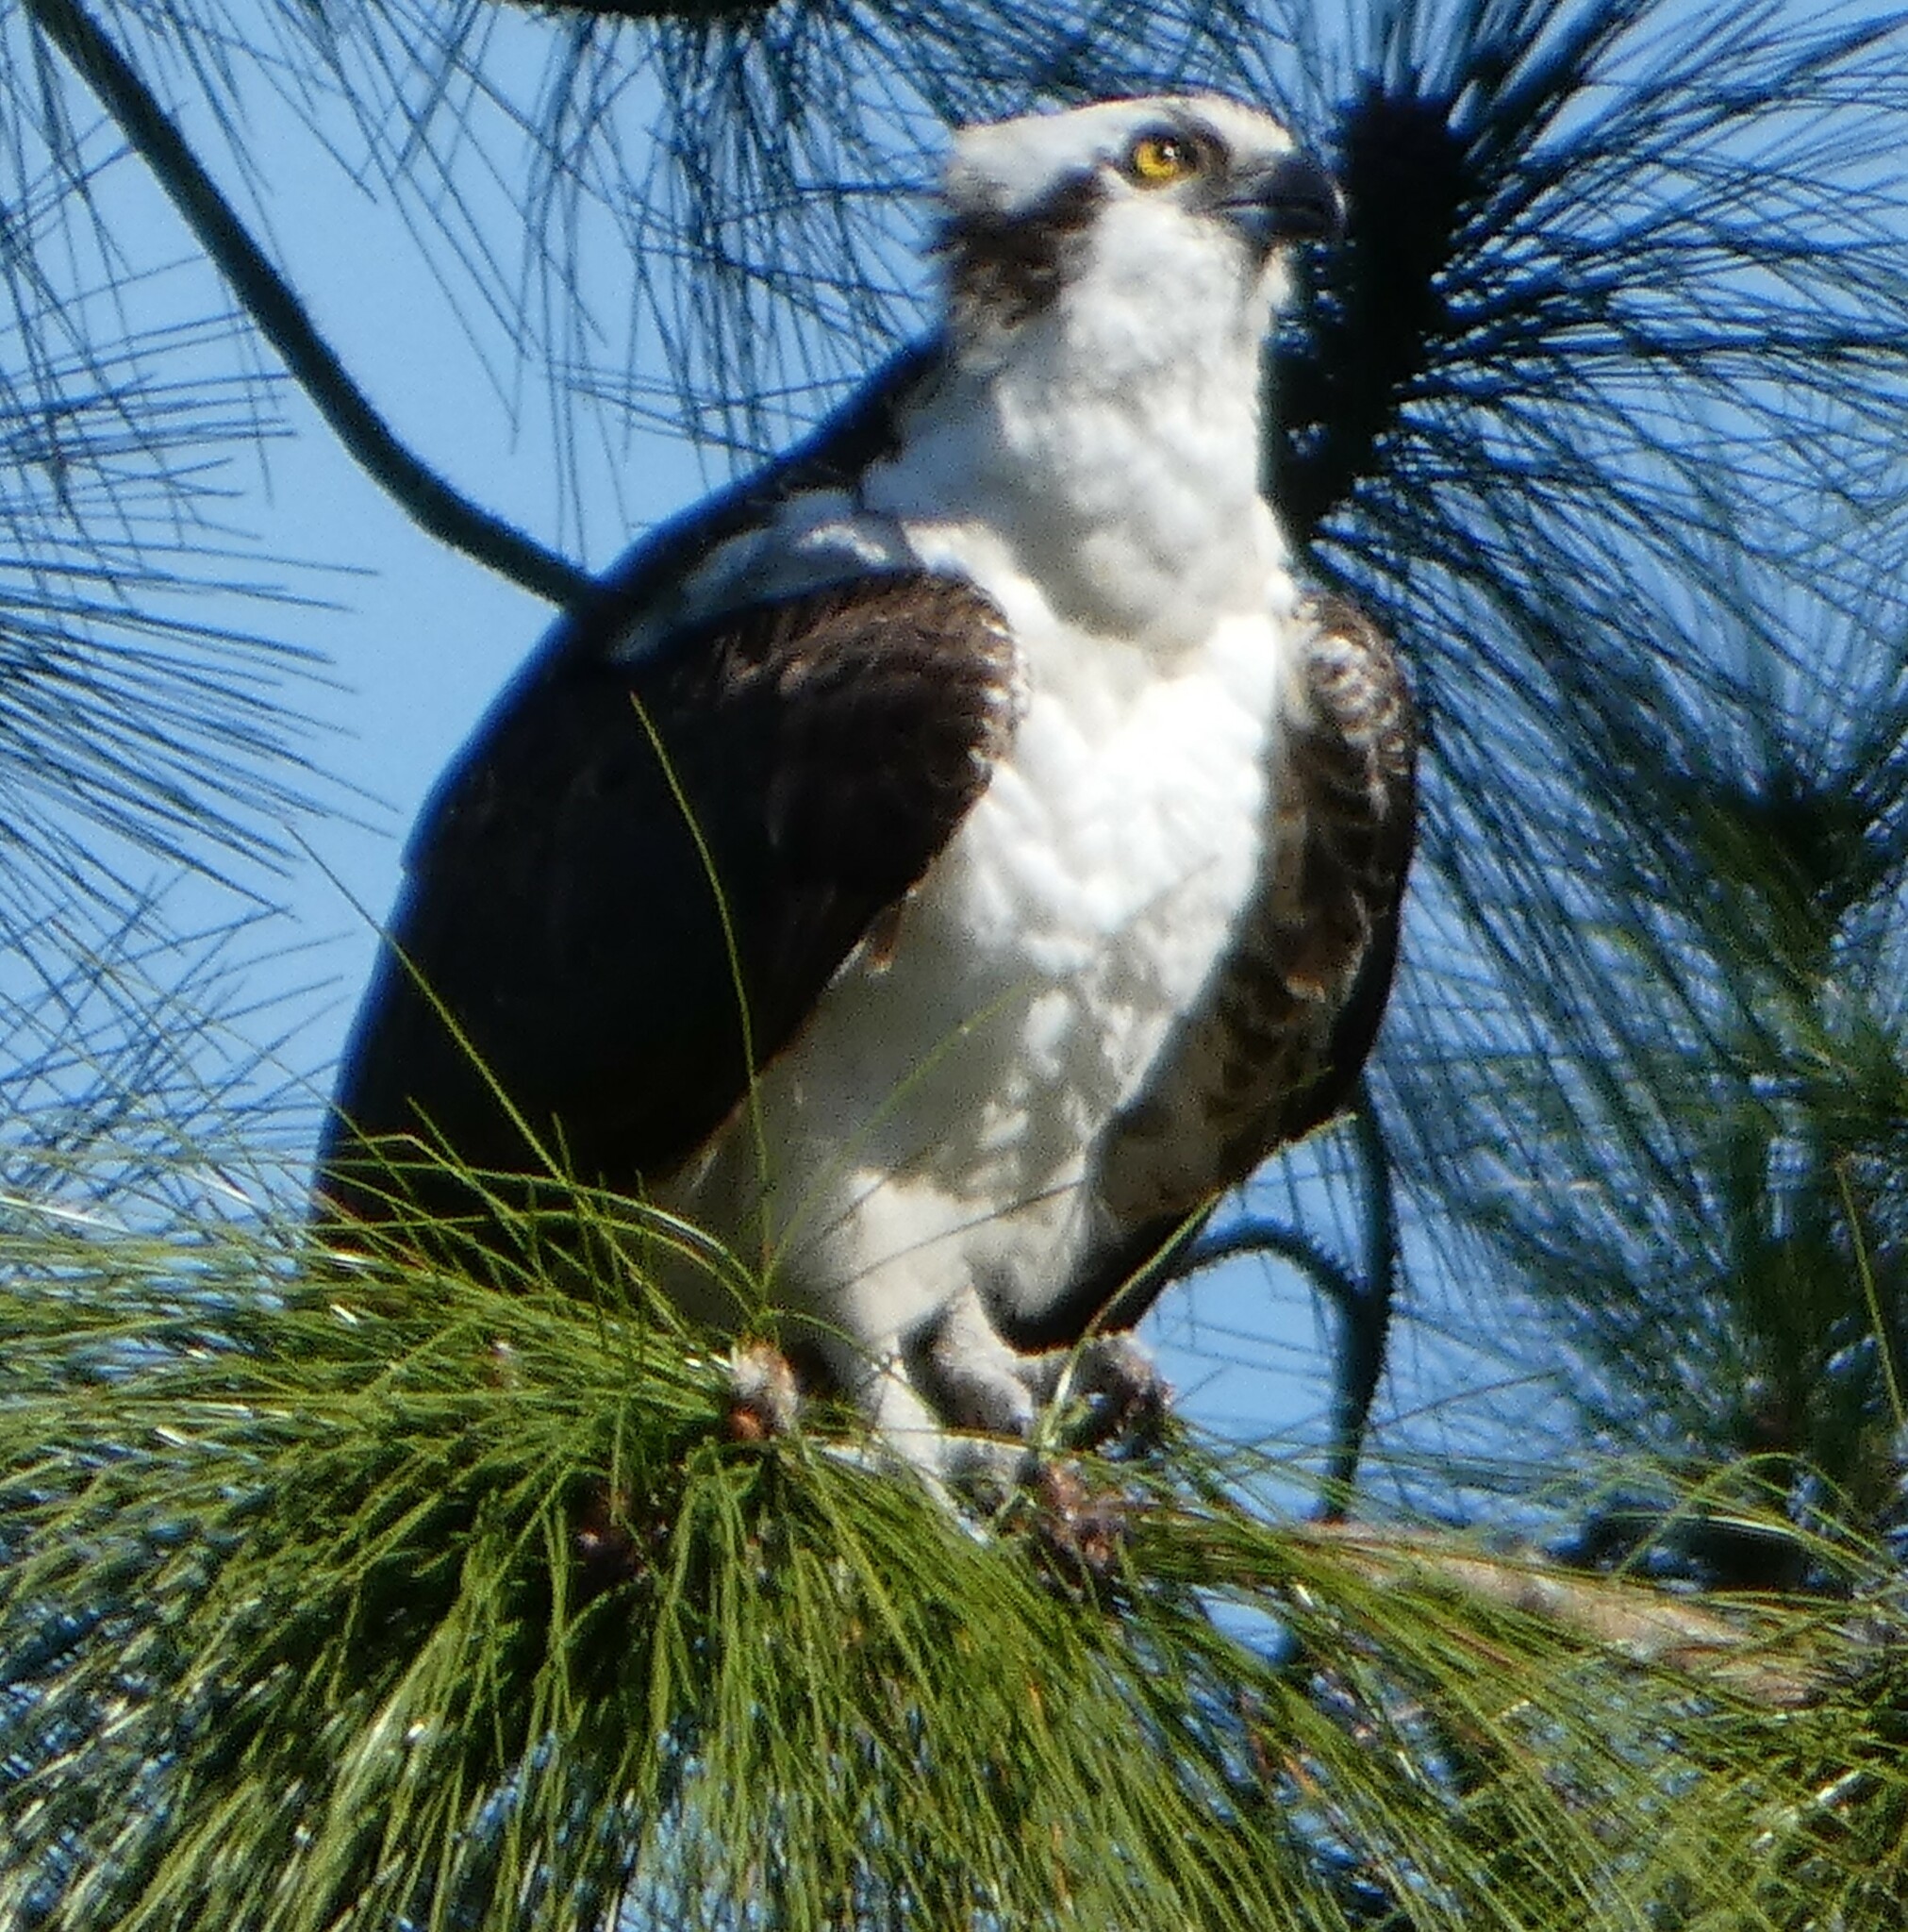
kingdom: Animalia
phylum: Chordata
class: Aves
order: Accipitriformes
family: Pandionidae
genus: Pandion
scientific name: Pandion haliaetus
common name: Osprey
